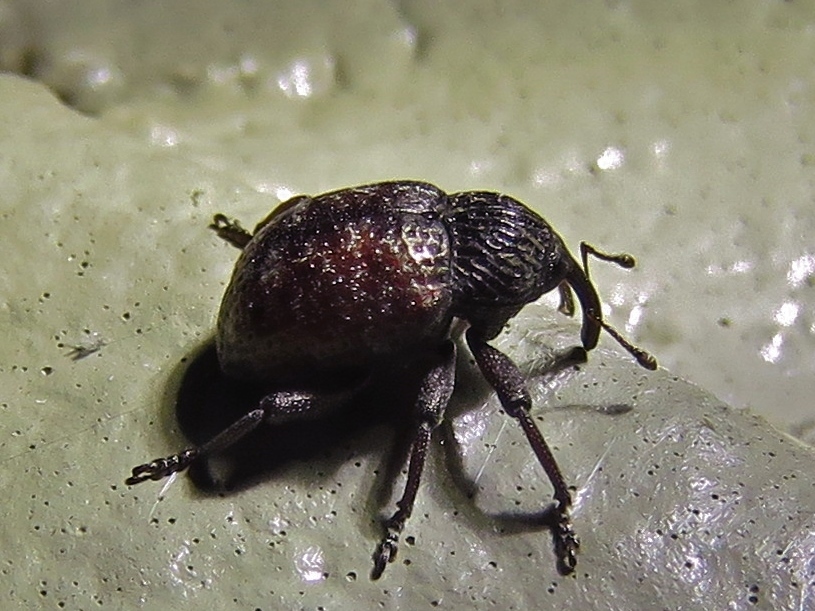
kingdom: Animalia
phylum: Arthropoda
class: Insecta
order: Coleoptera
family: Curculionidae
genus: Chalcodermus
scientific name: Chalcodermus collaris
